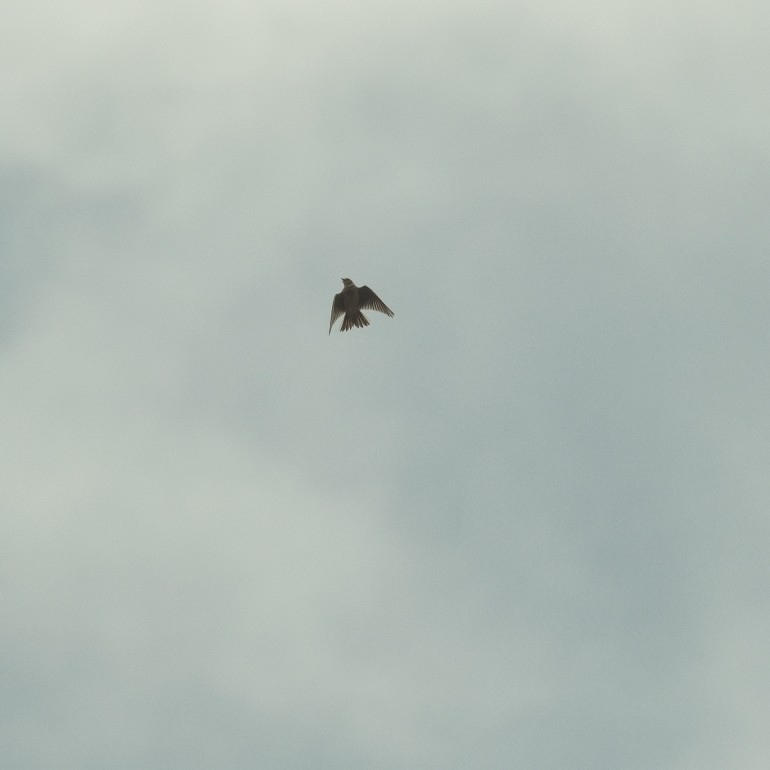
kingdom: Animalia
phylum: Chordata
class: Aves
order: Passeriformes
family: Alaudidae
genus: Alauda
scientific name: Alauda arvensis
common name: Eurasian skylark
